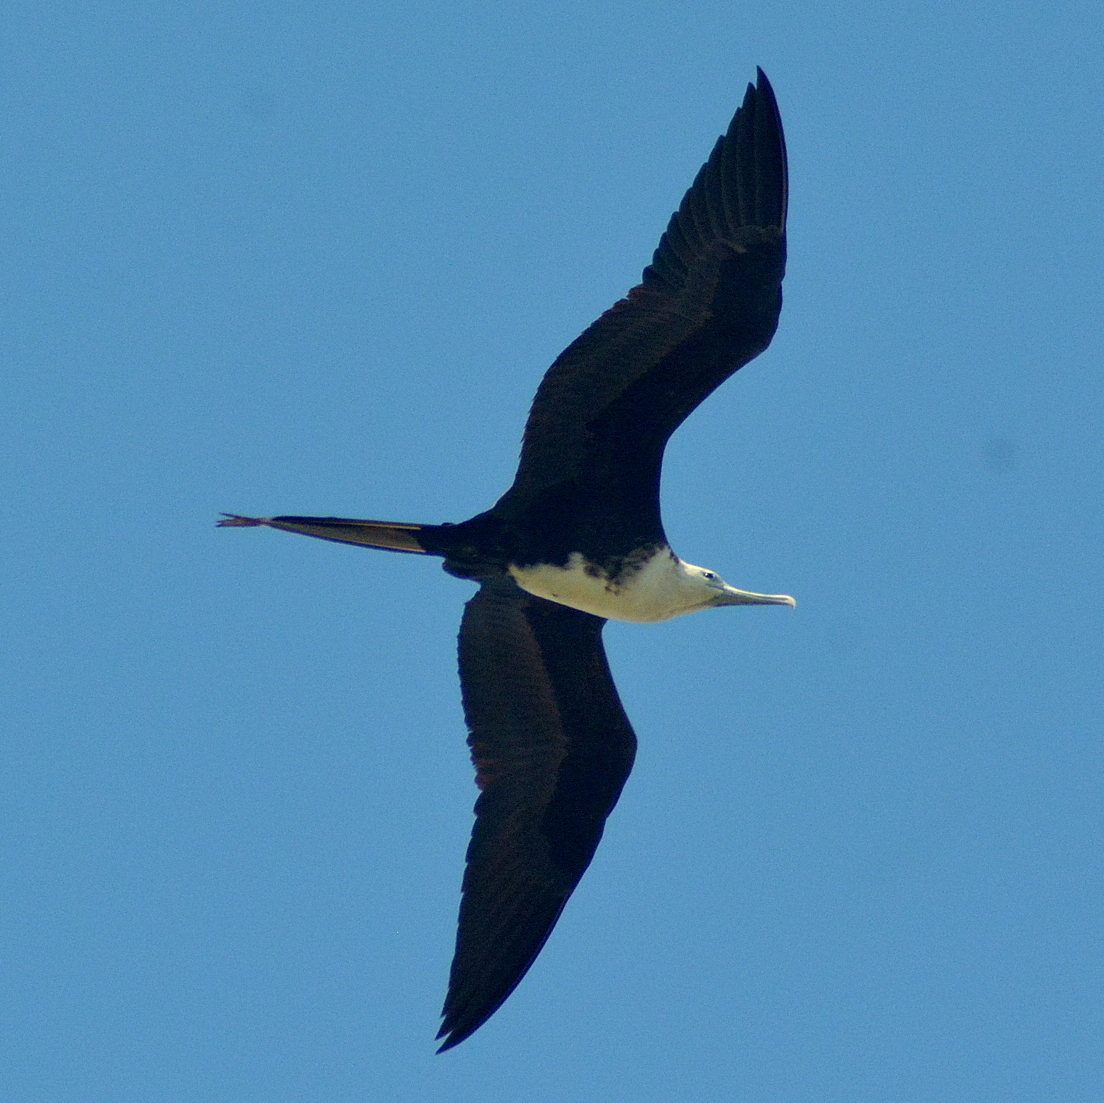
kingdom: Animalia
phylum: Chordata
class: Aves
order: Suliformes
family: Fregatidae
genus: Fregata
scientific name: Fregata magnificens
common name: Magnificent frigatebird
